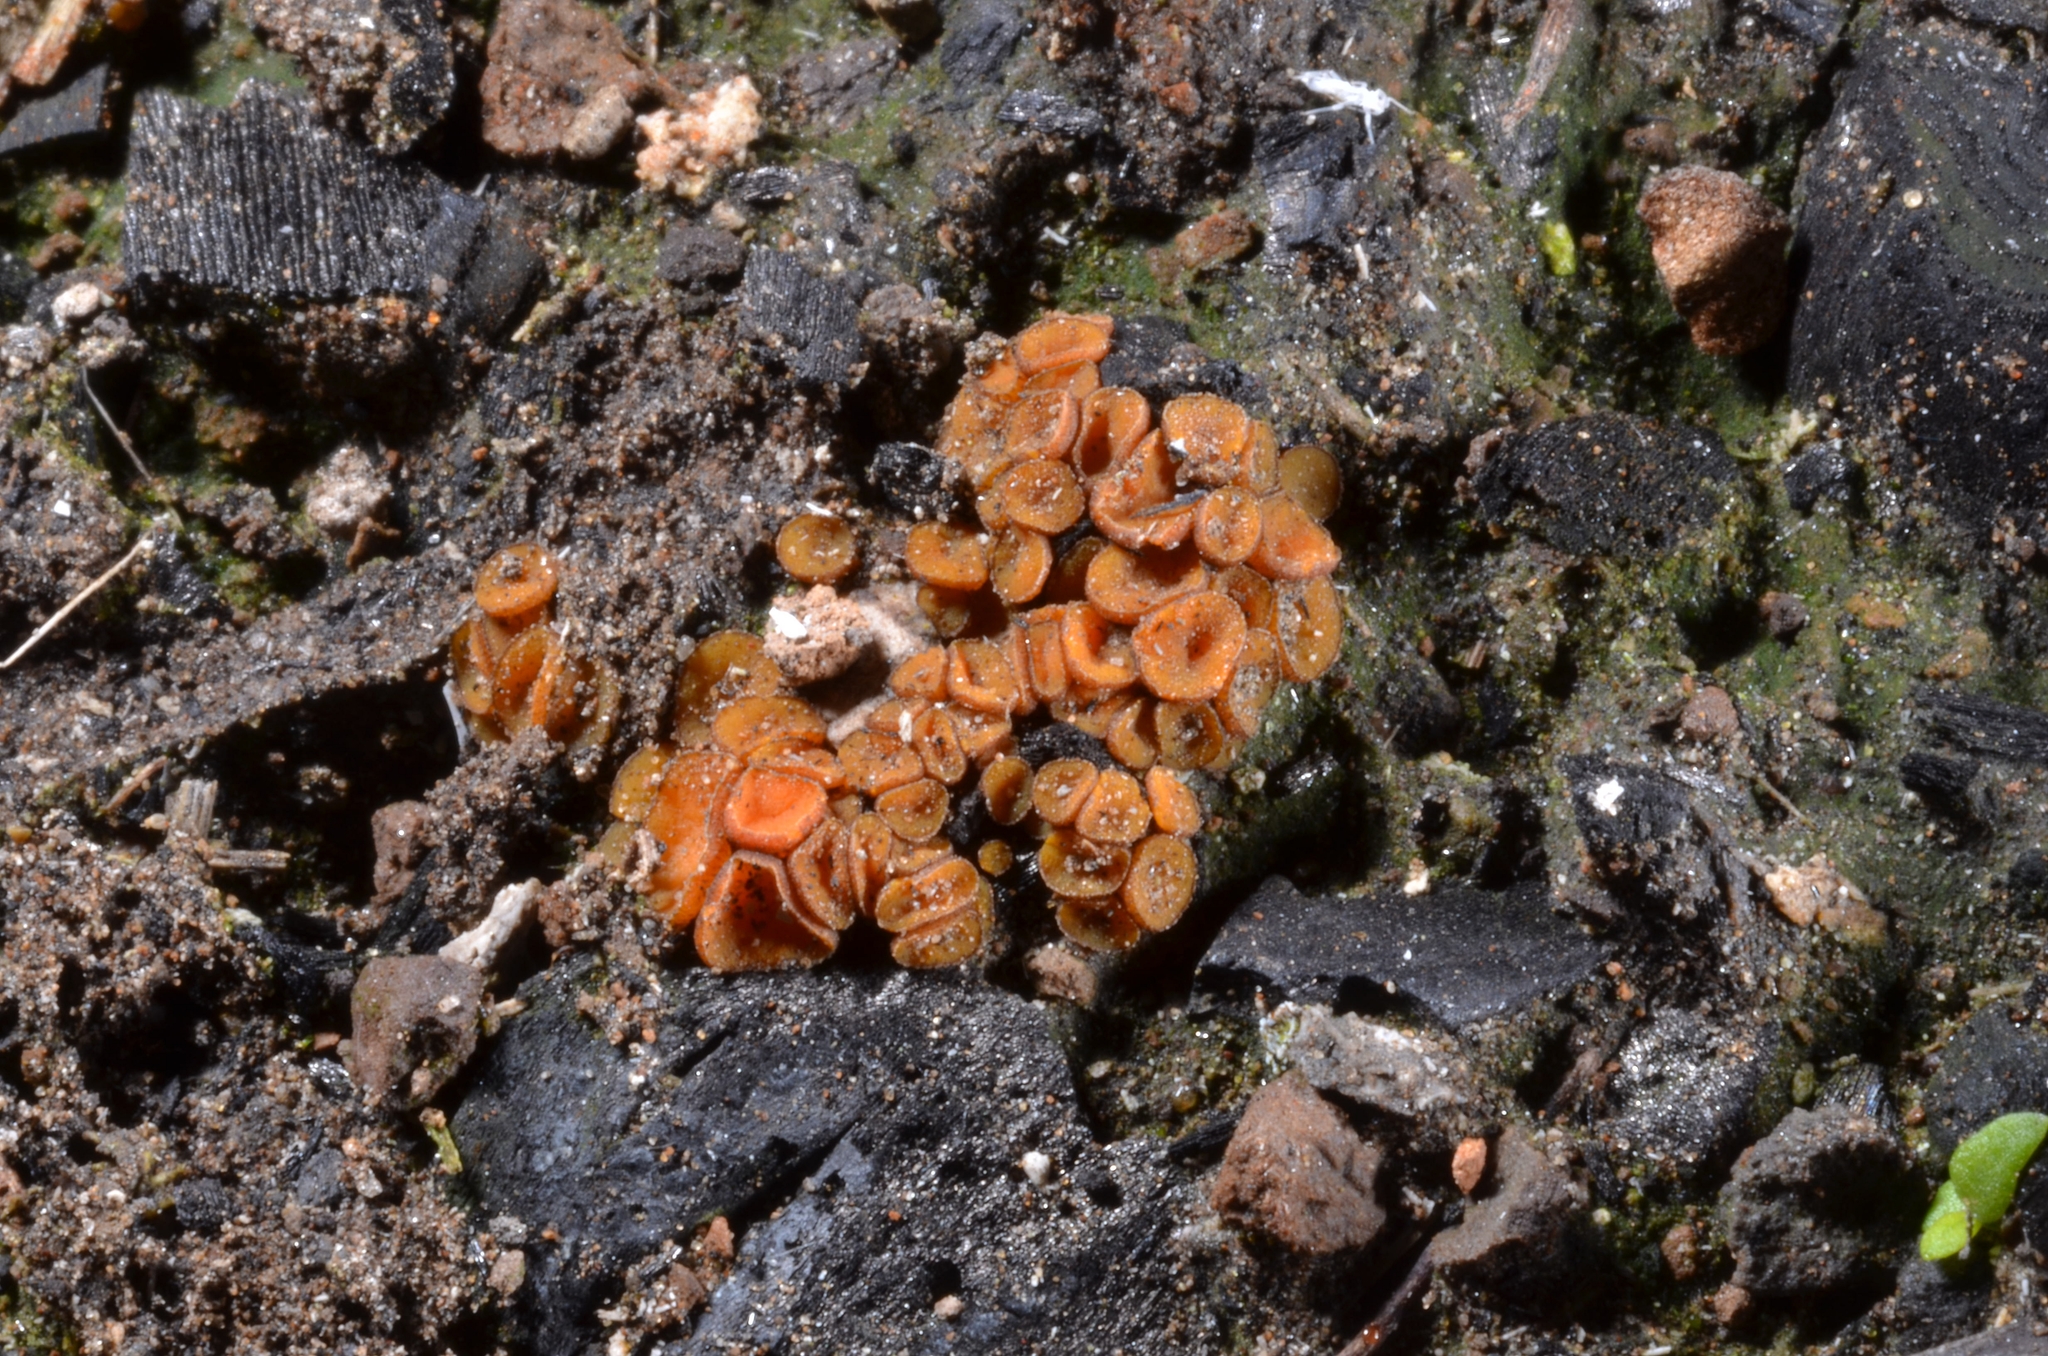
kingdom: Fungi
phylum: Ascomycota
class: Pezizomycetes
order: Pezizales
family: Pyronemataceae
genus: Anthracobia
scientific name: Anthracobia macrocystis
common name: Charcoal goldeneye
